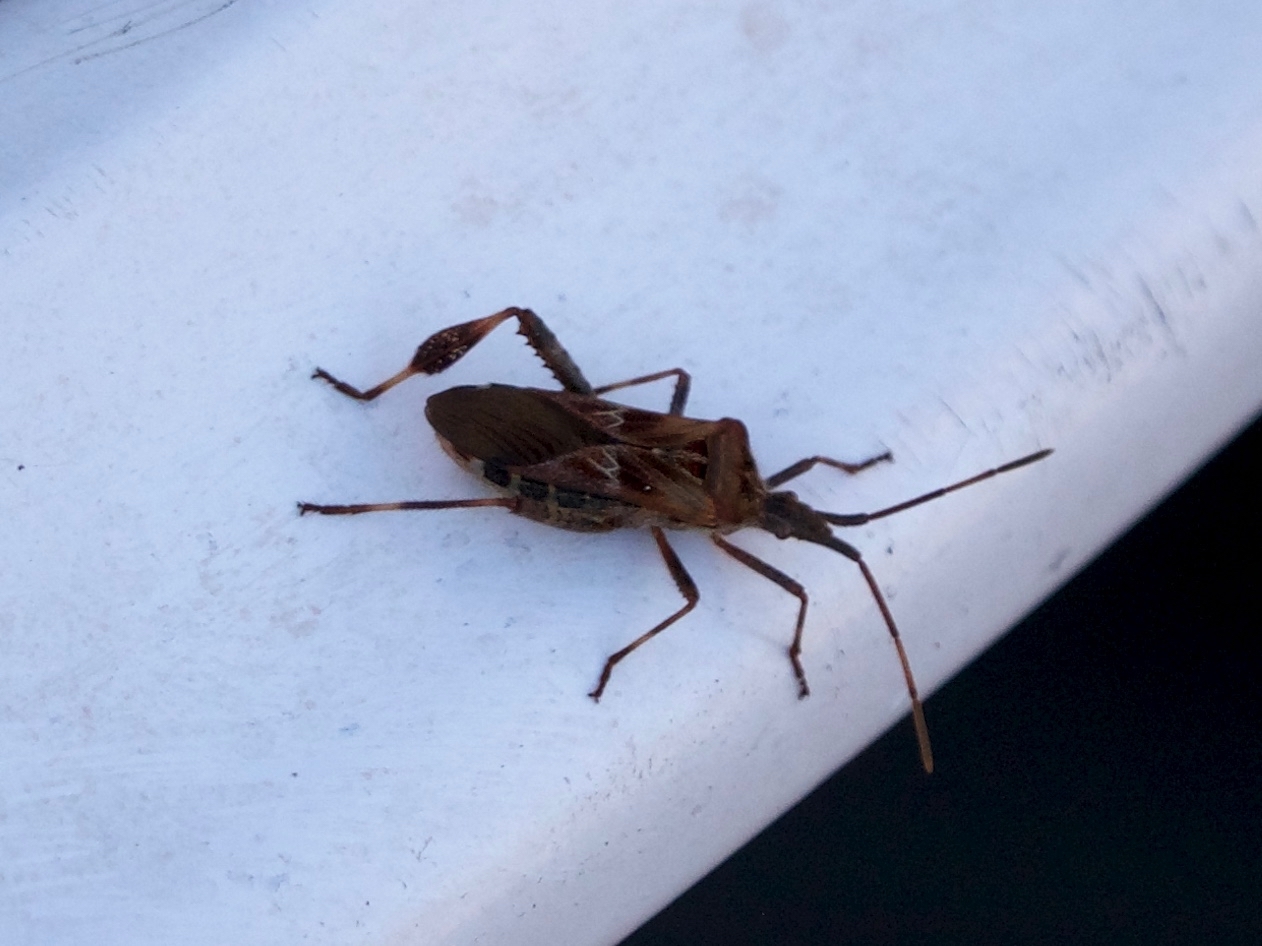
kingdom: Animalia
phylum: Arthropoda
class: Insecta
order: Hemiptera
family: Coreidae
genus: Leptoglossus
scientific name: Leptoglossus occidentalis
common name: Western conifer-seed bug
